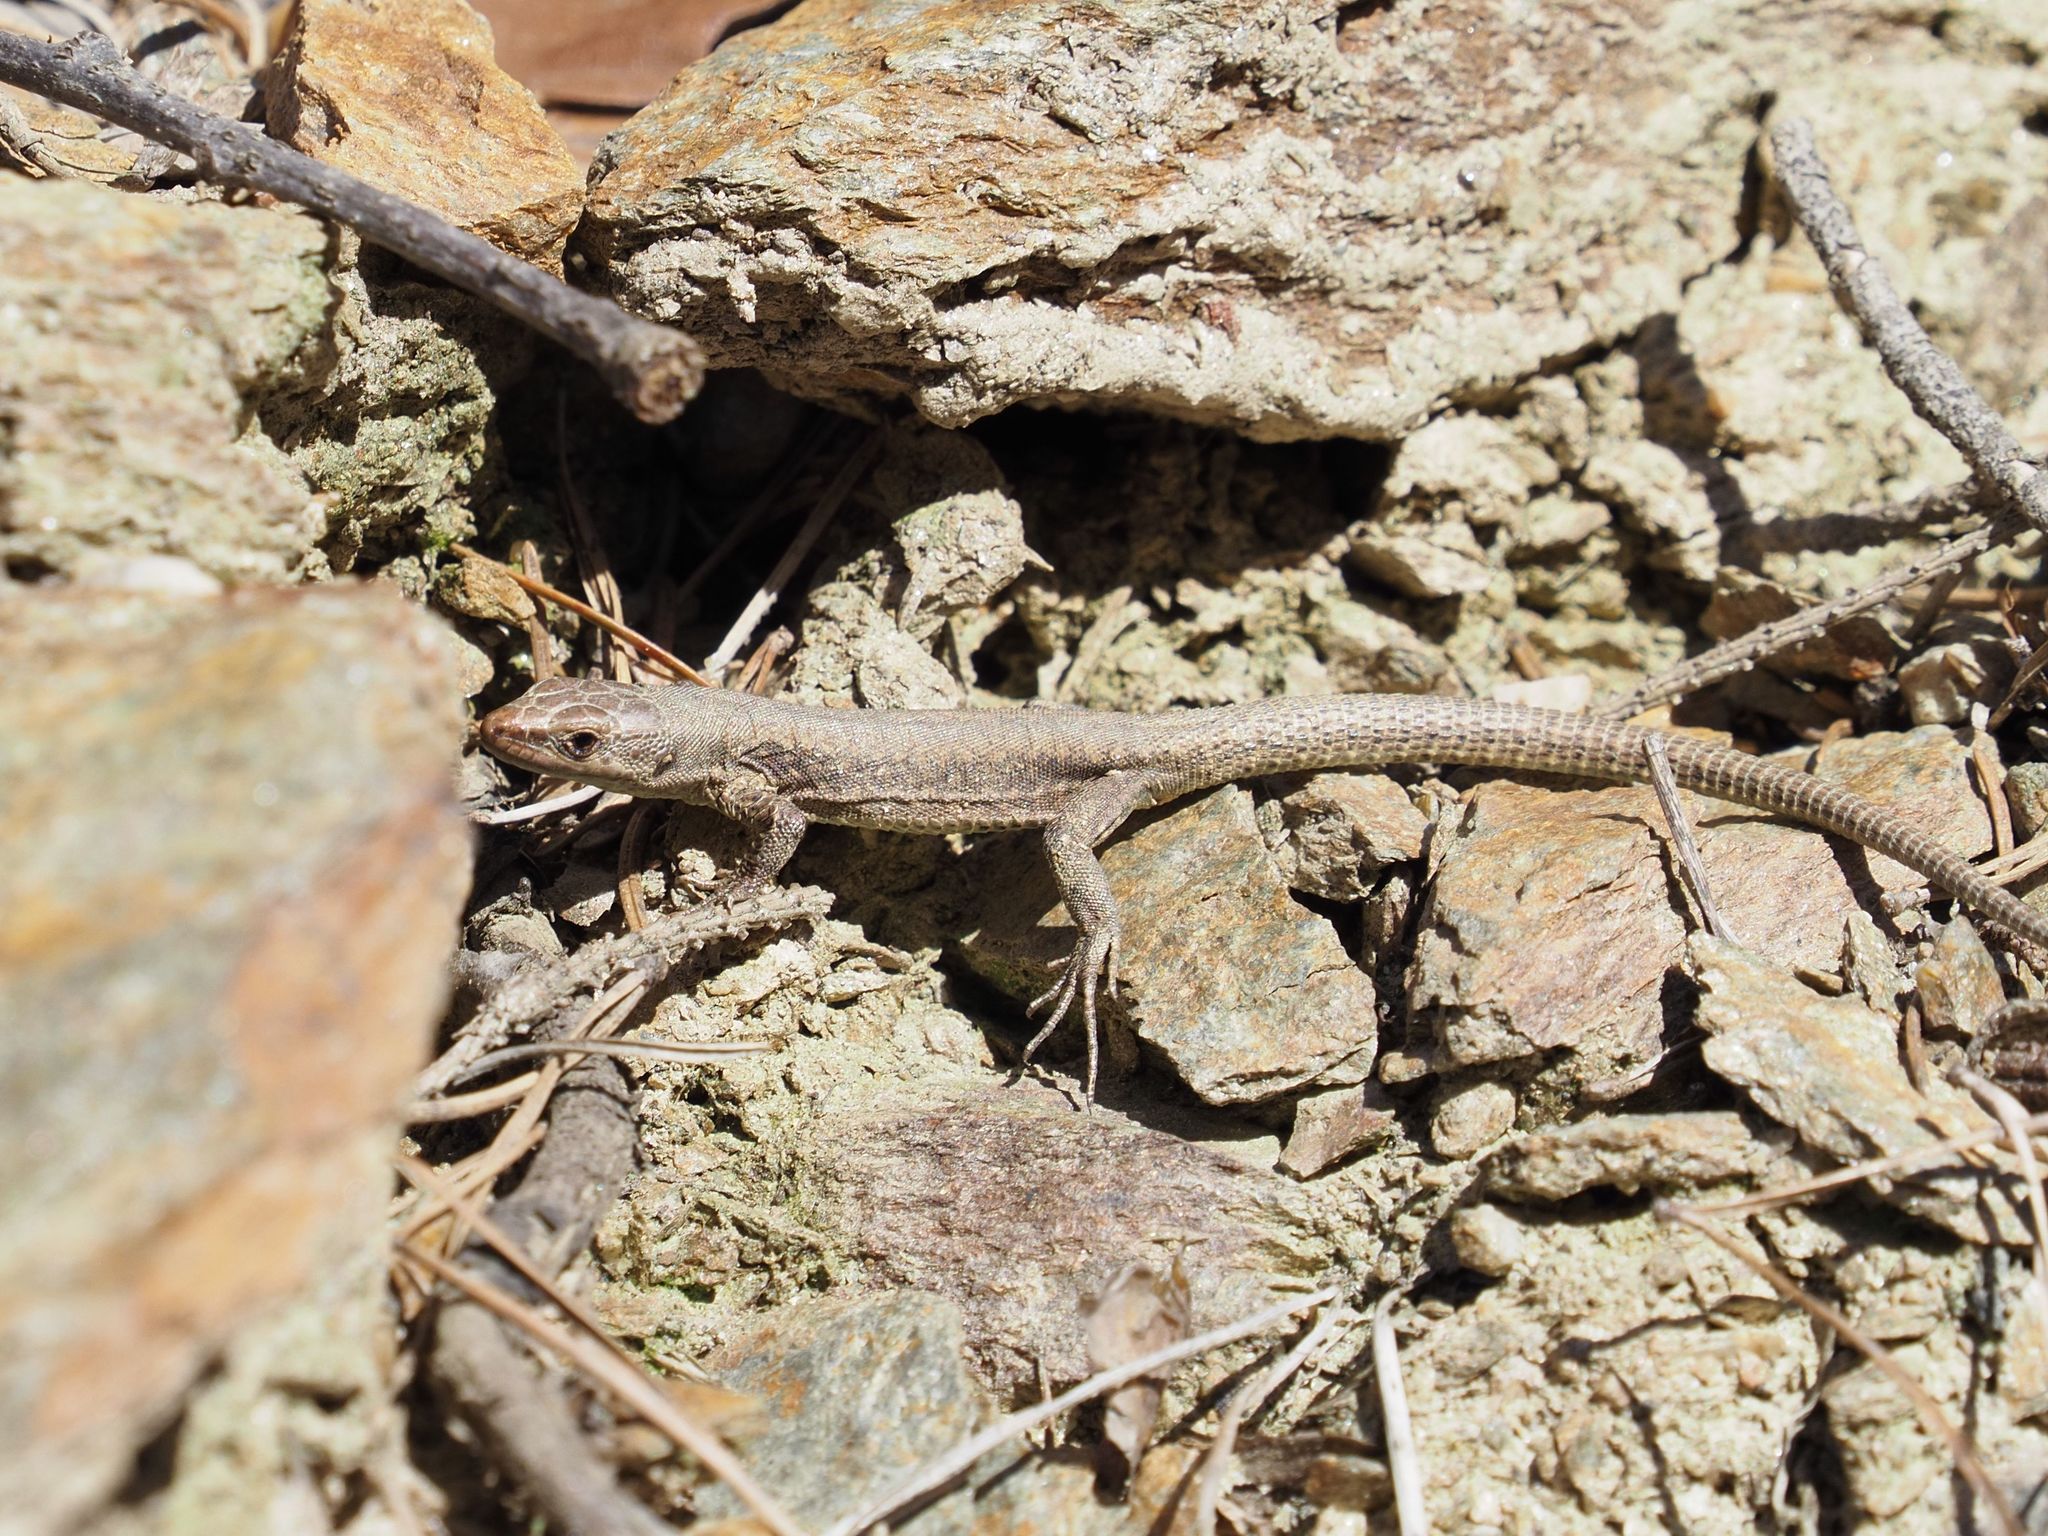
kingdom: Animalia
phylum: Chordata
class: Squamata
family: Lacertidae
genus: Podarcis
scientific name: Podarcis muralis
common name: Common wall lizard
